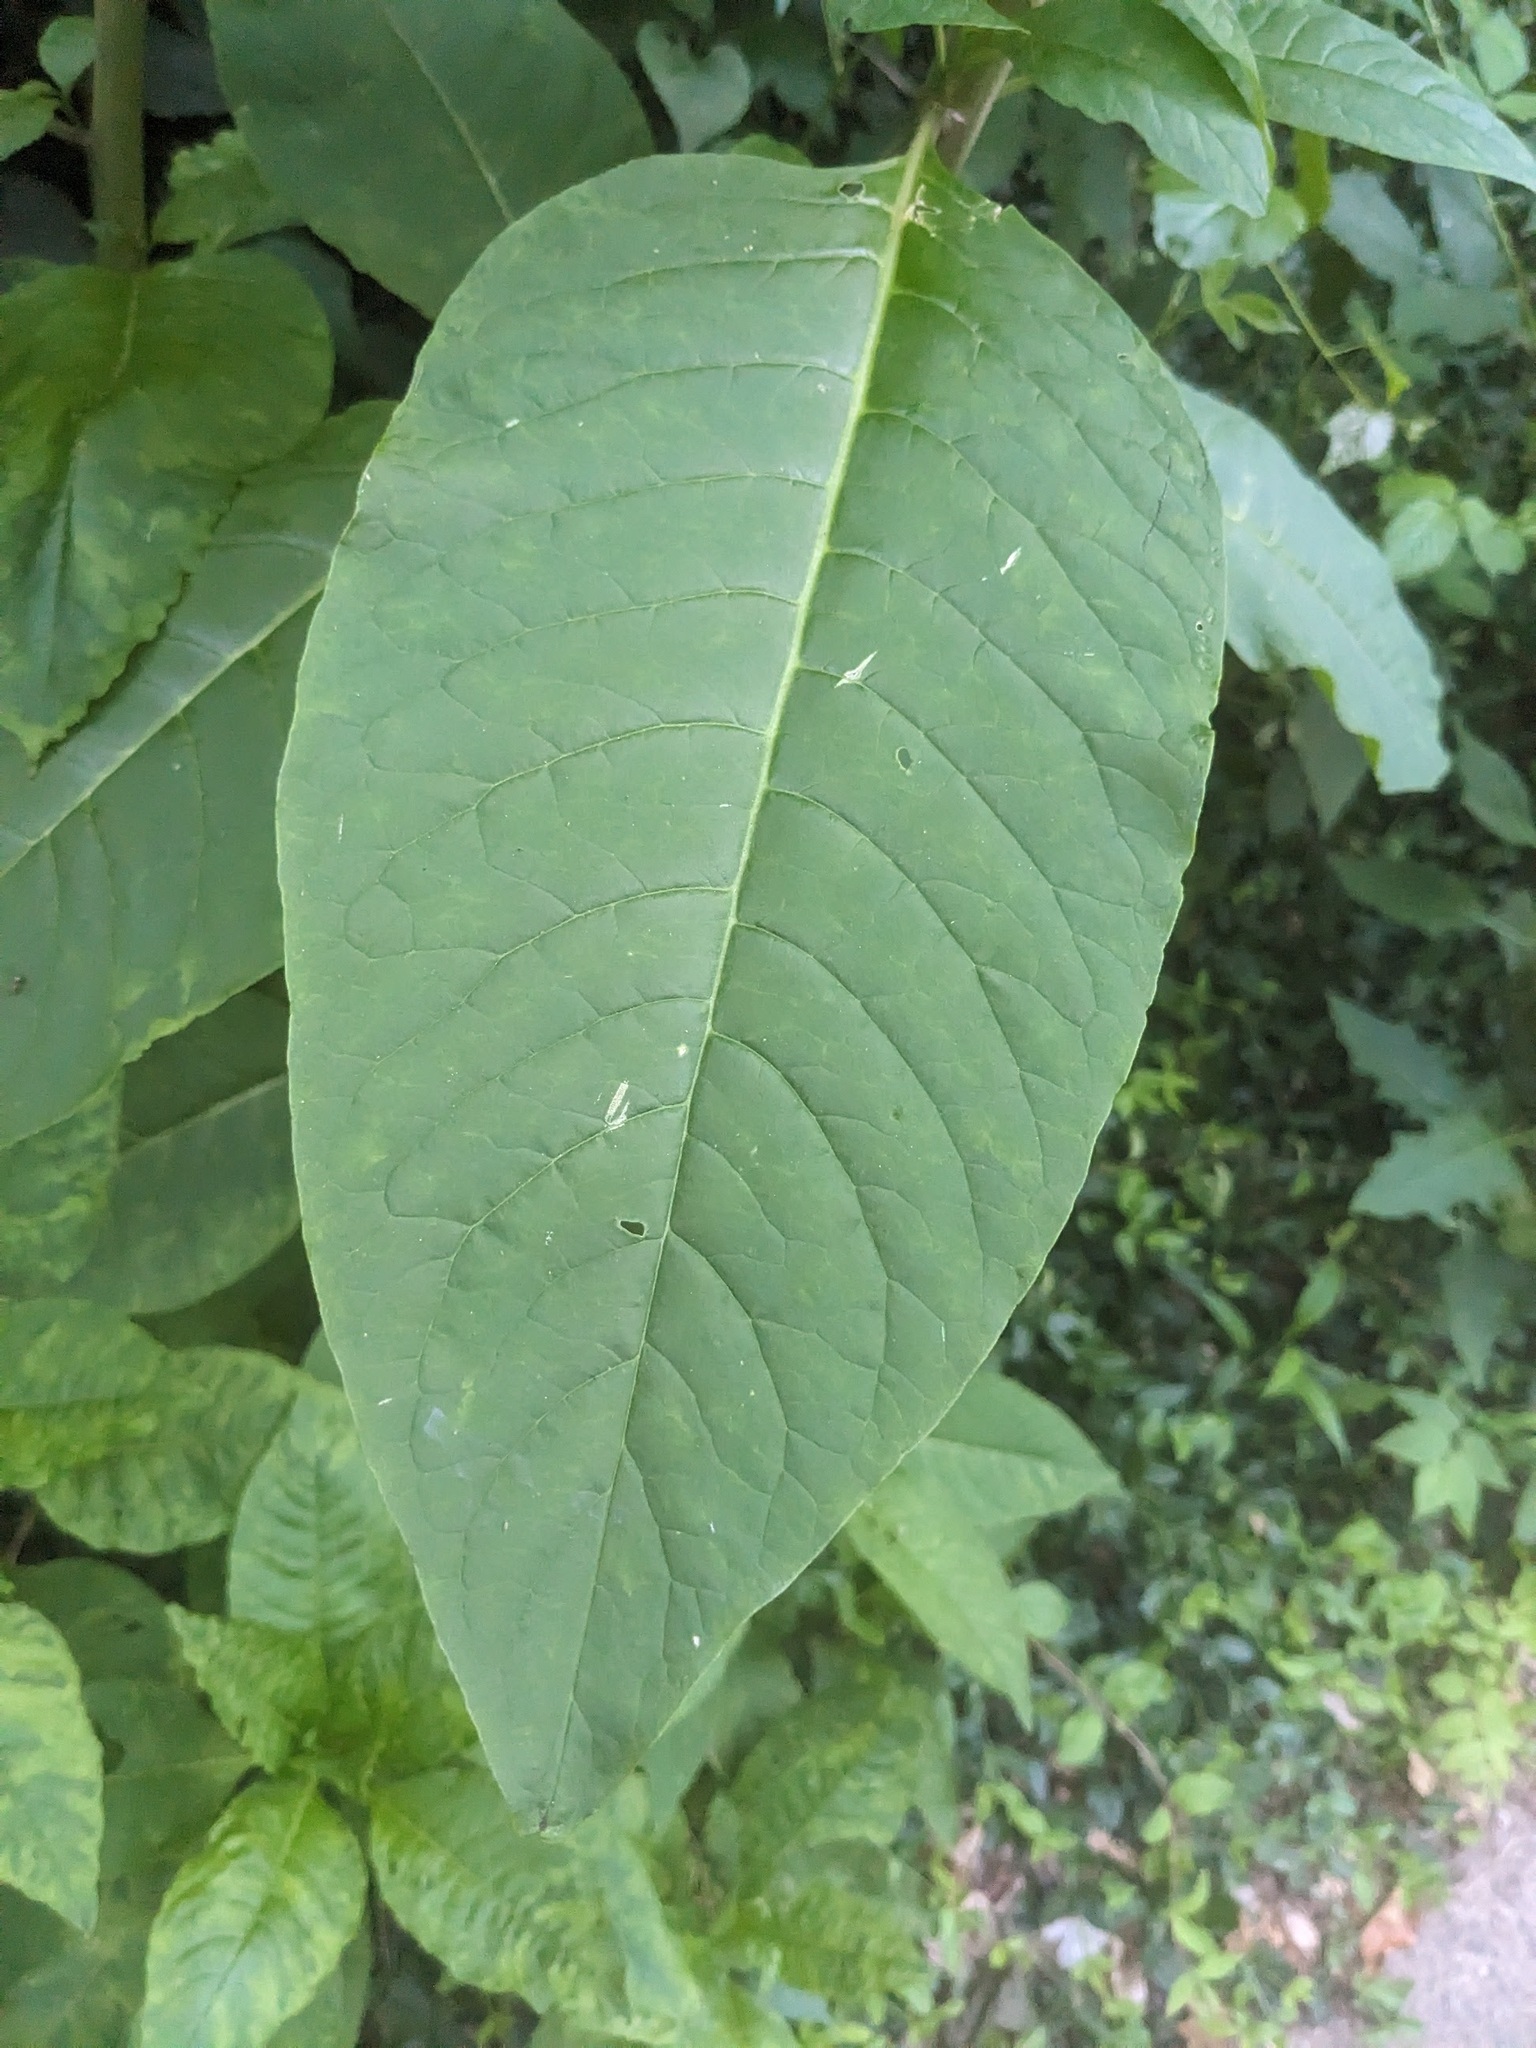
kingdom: Plantae
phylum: Tracheophyta
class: Magnoliopsida
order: Caryophyllales
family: Phytolaccaceae
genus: Phytolacca
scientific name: Phytolacca americana
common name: American pokeweed
